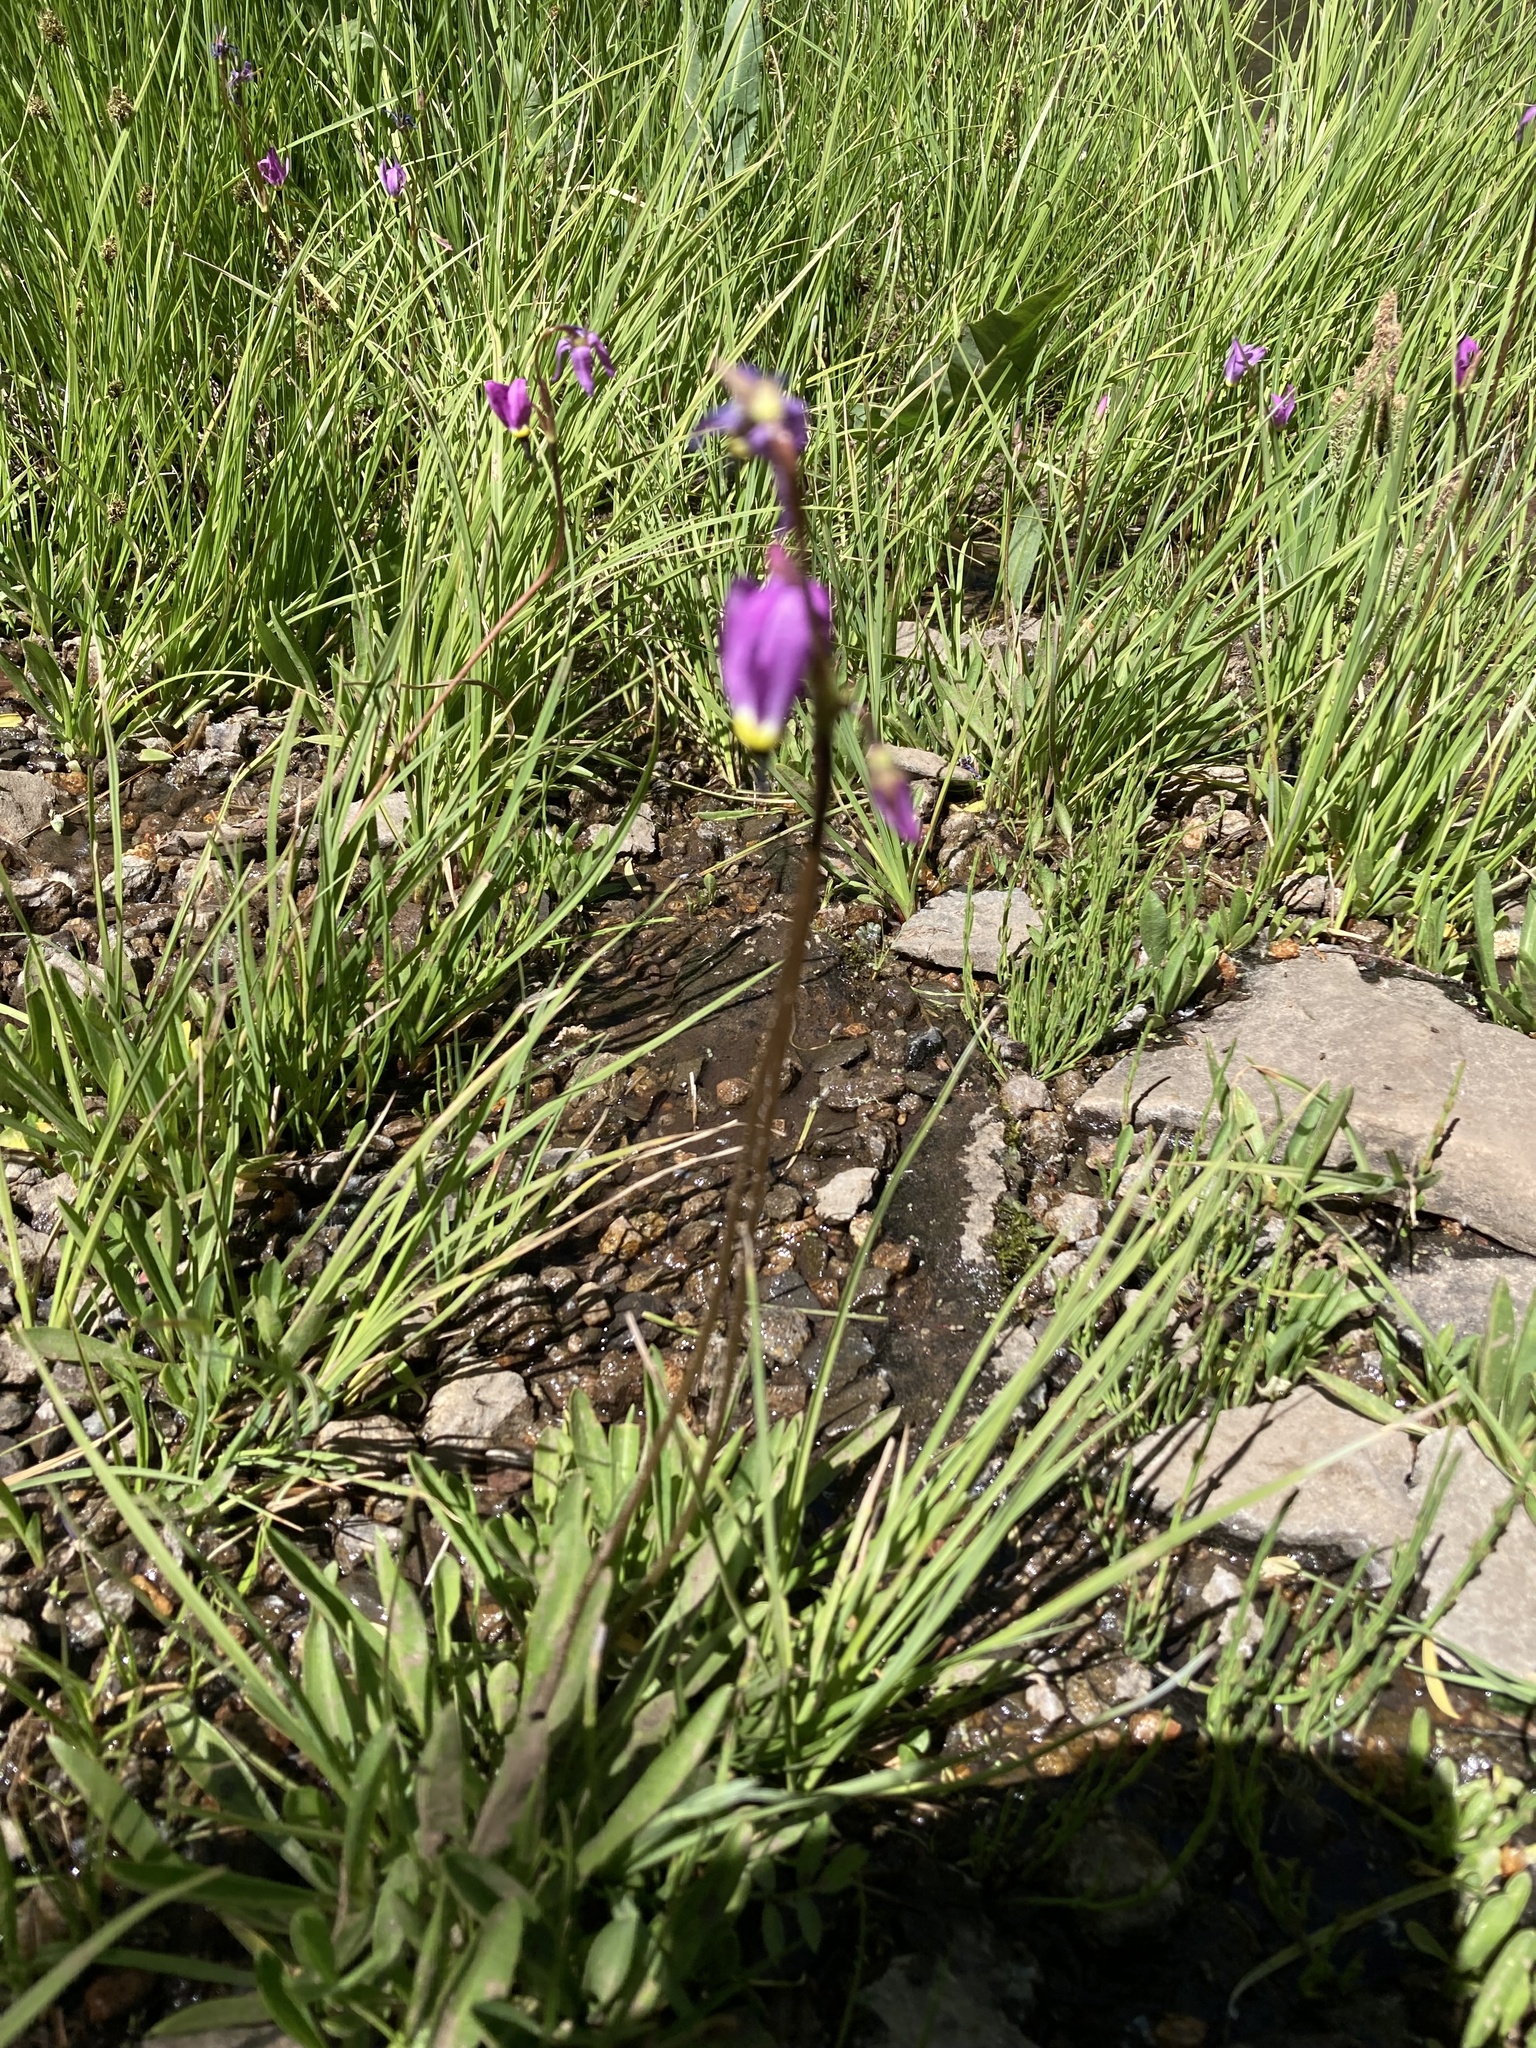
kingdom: Plantae
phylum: Tracheophyta
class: Magnoliopsida
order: Ericales
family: Primulaceae
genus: Dodecatheon
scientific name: Dodecatheon alpinum
